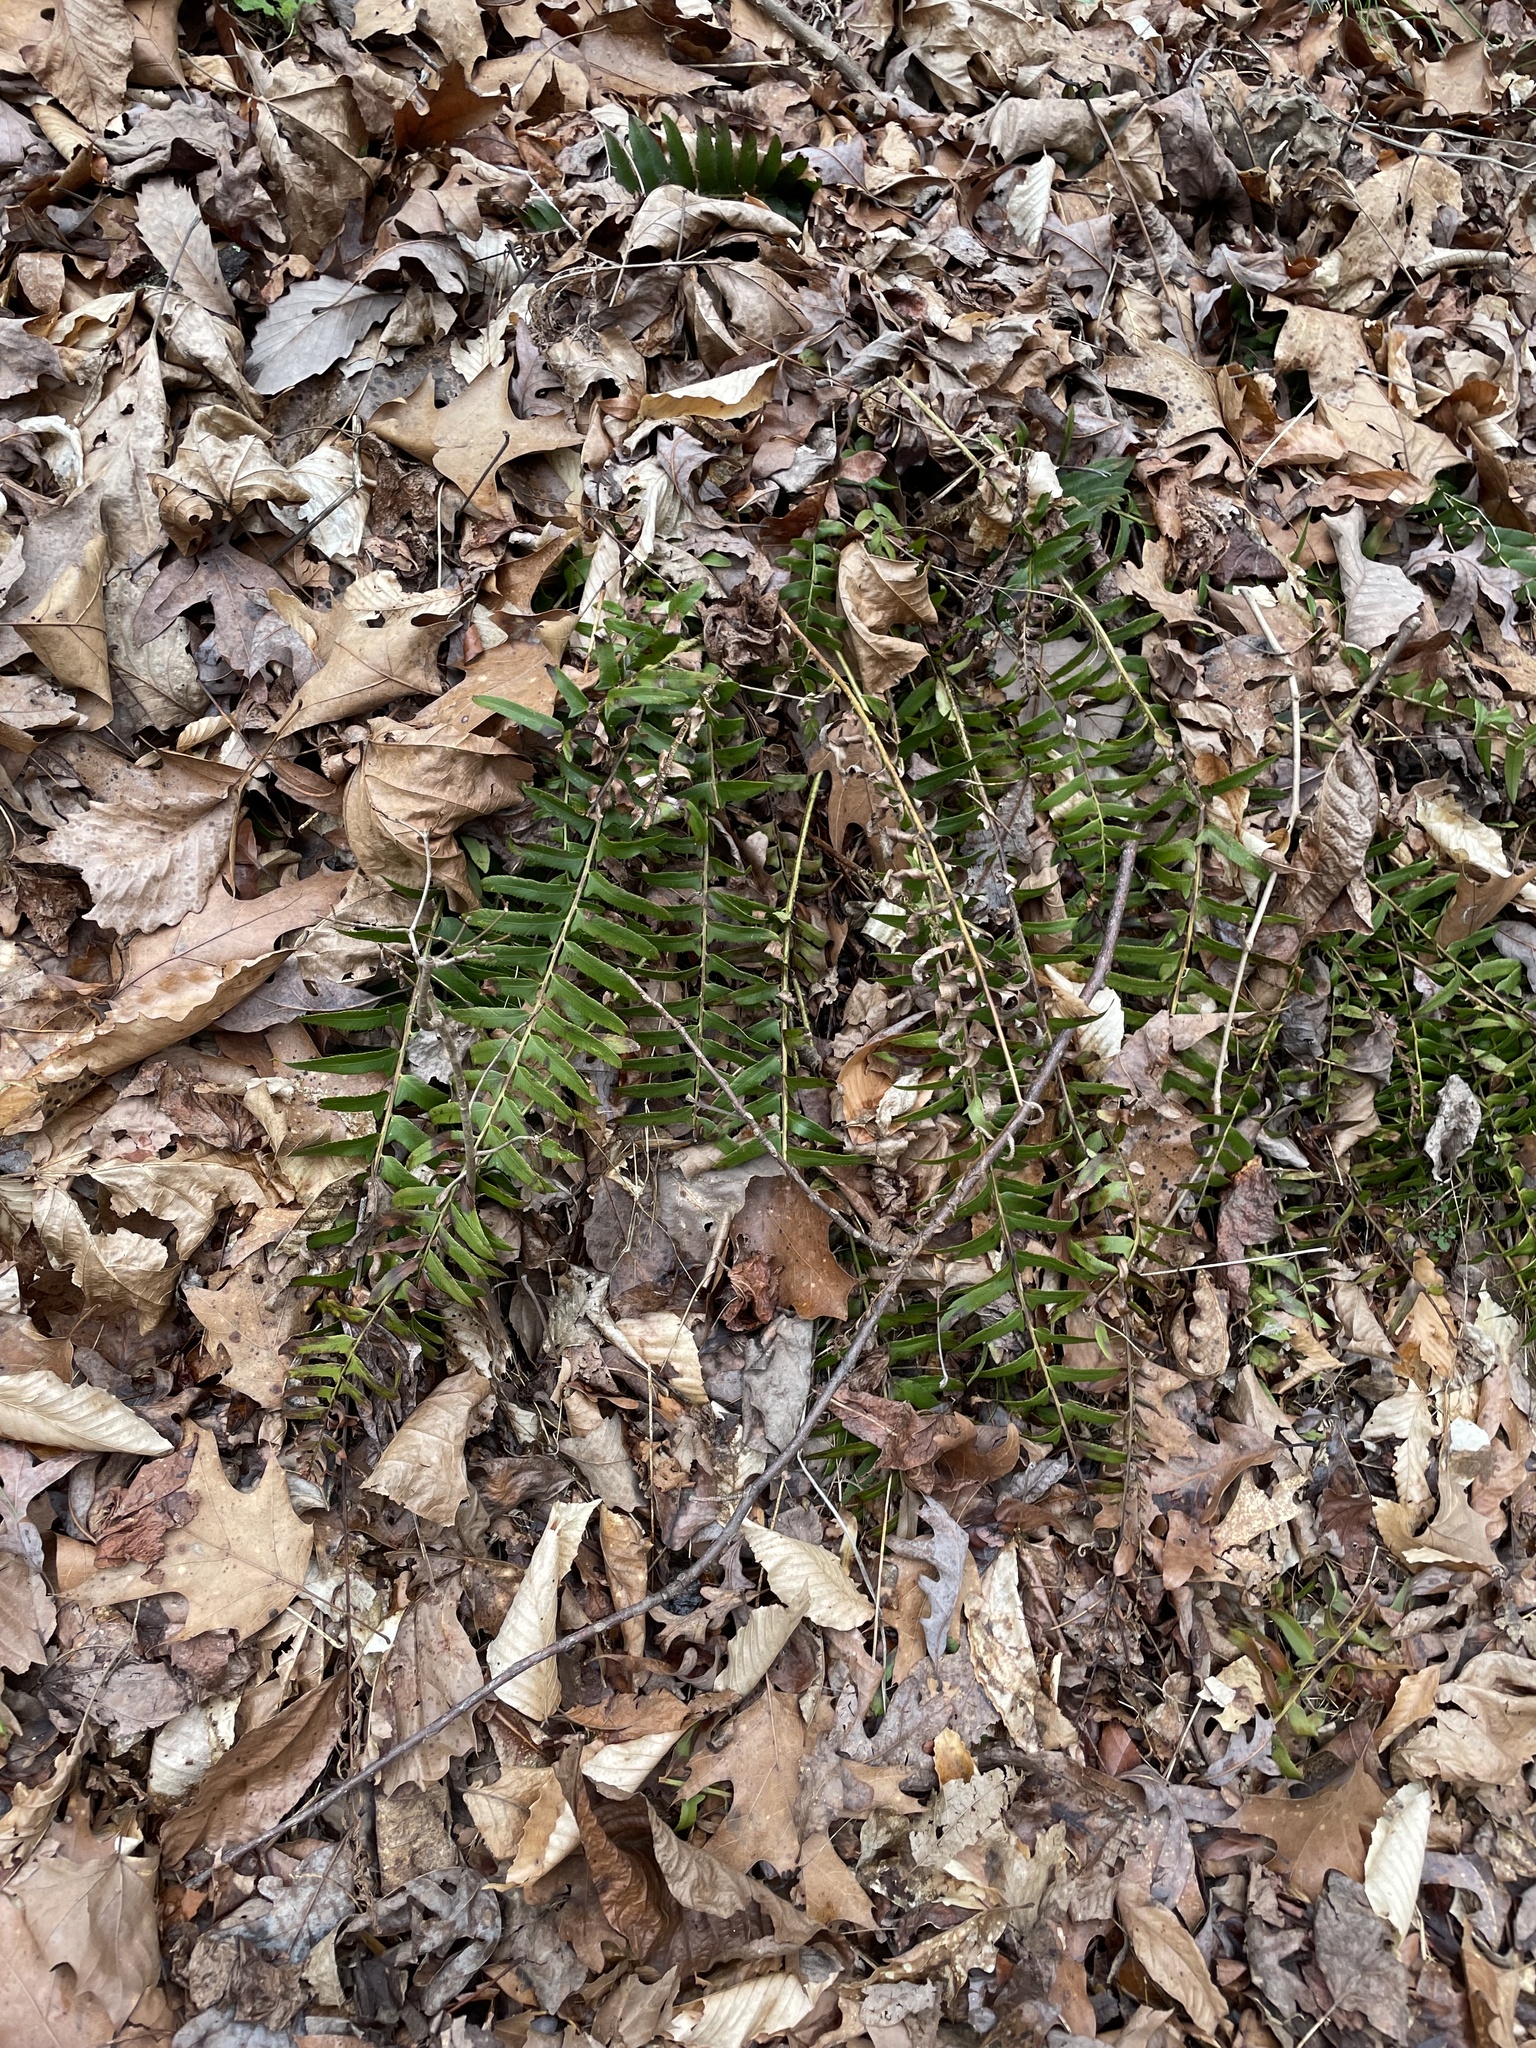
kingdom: Plantae
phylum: Tracheophyta
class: Polypodiopsida
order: Polypodiales
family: Dryopteridaceae
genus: Polystichum
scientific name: Polystichum acrostichoides
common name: Christmas fern
